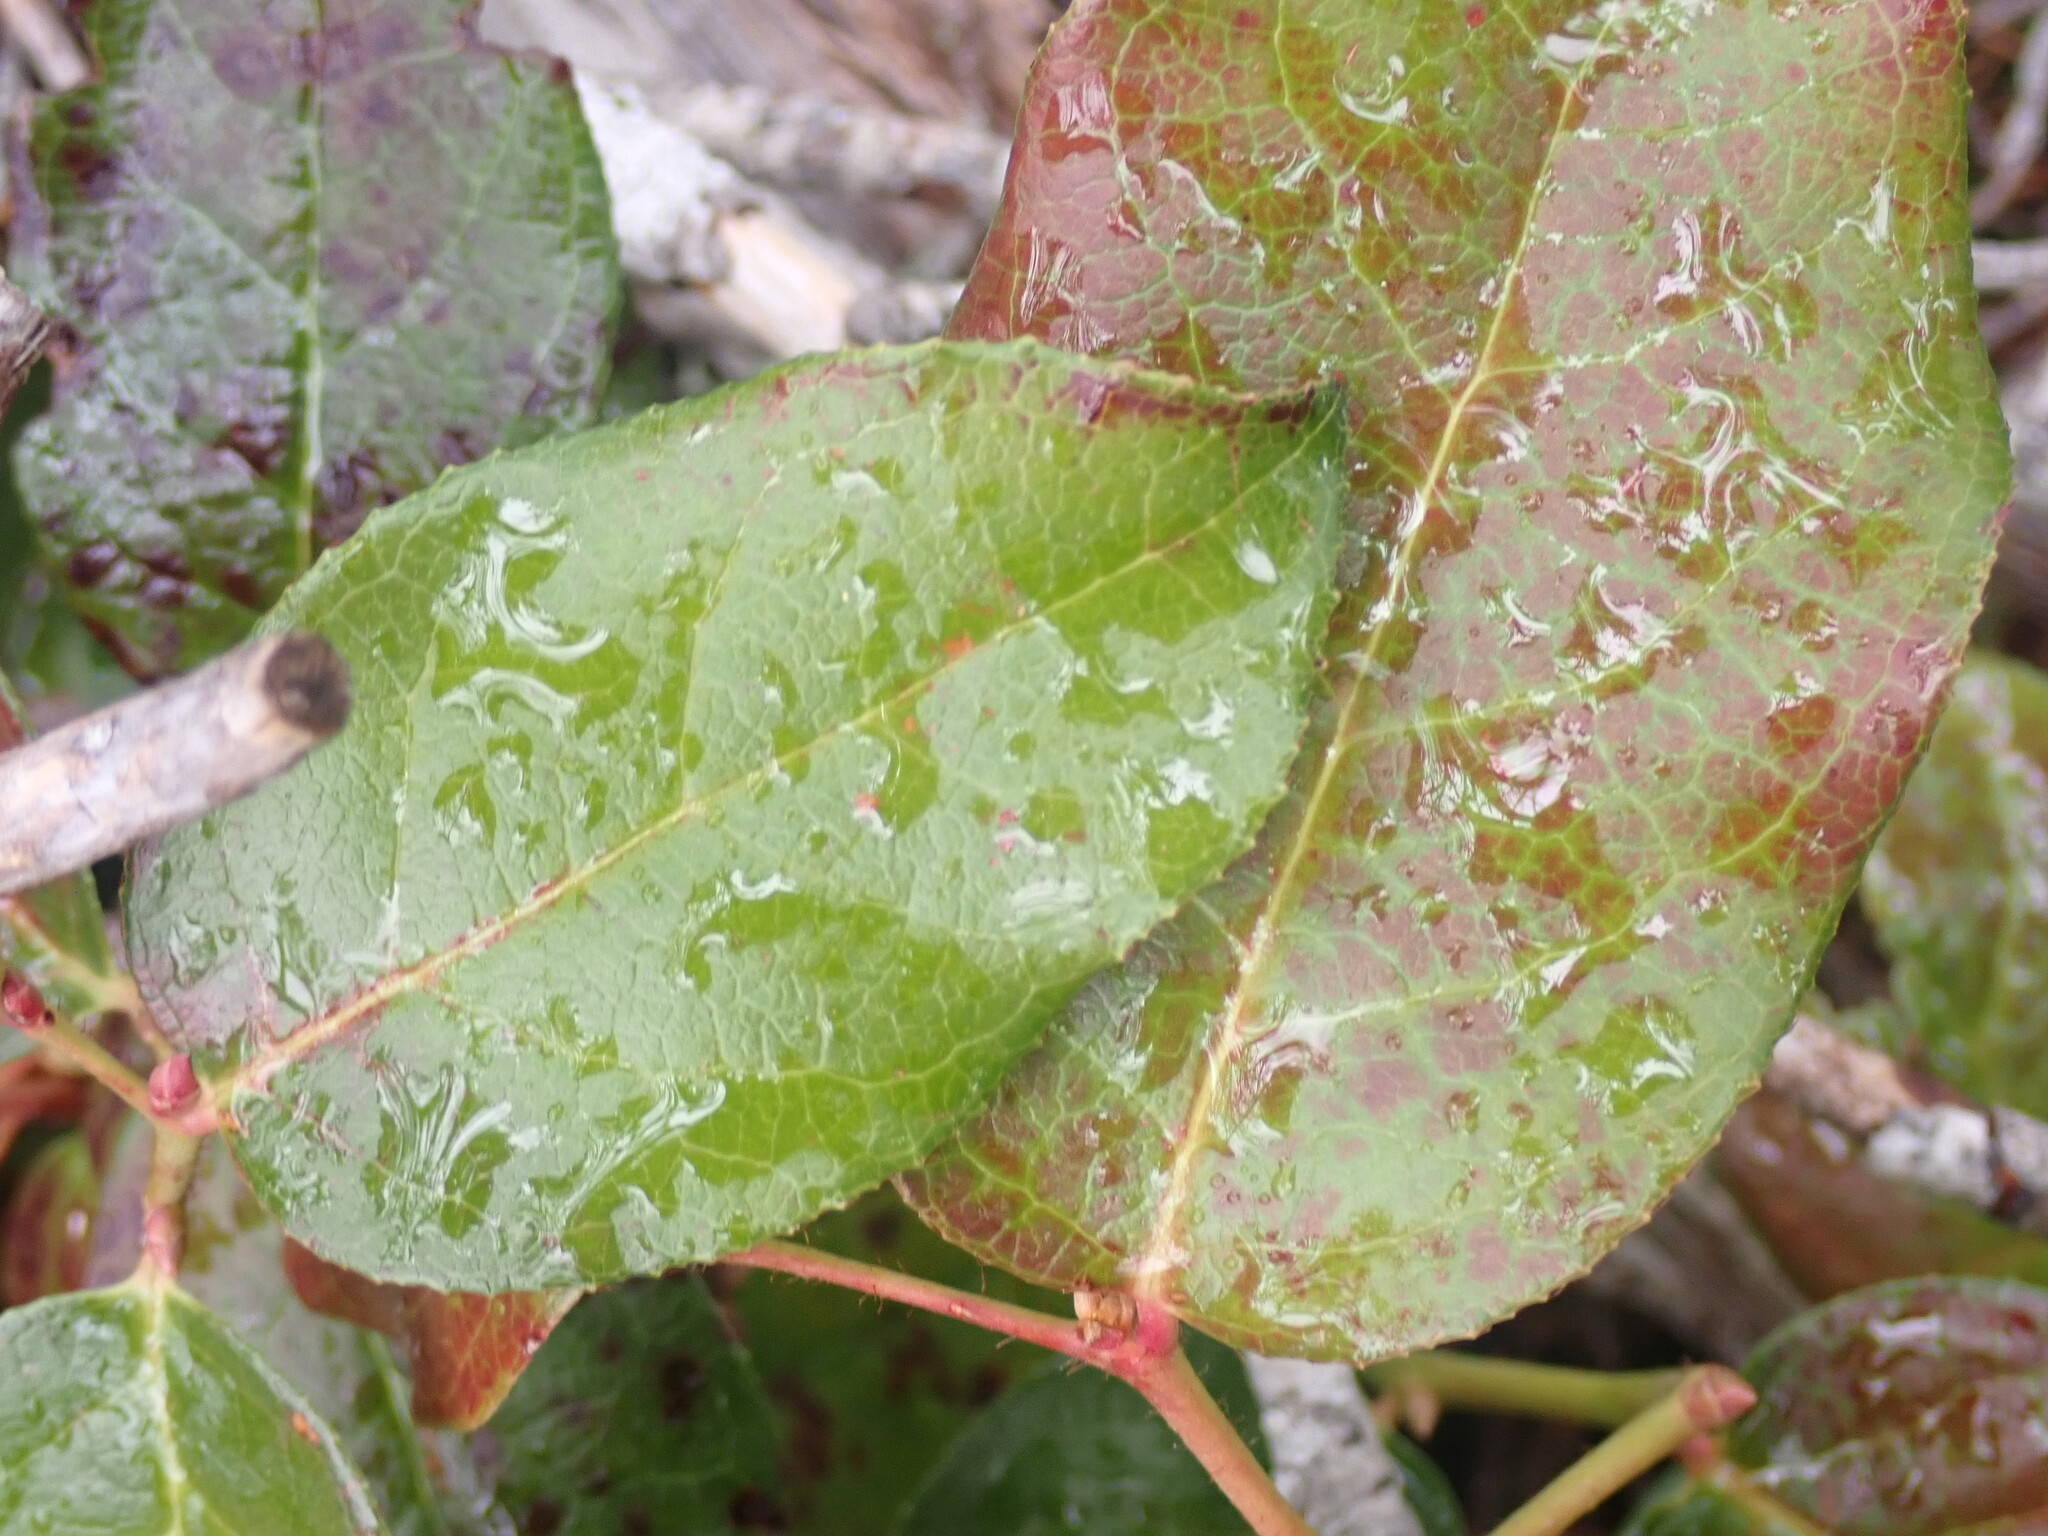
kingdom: Plantae
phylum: Tracheophyta
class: Magnoliopsida
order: Ericales
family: Ericaceae
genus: Gaultheria
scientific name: Gaultheria shallon
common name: Shallon
